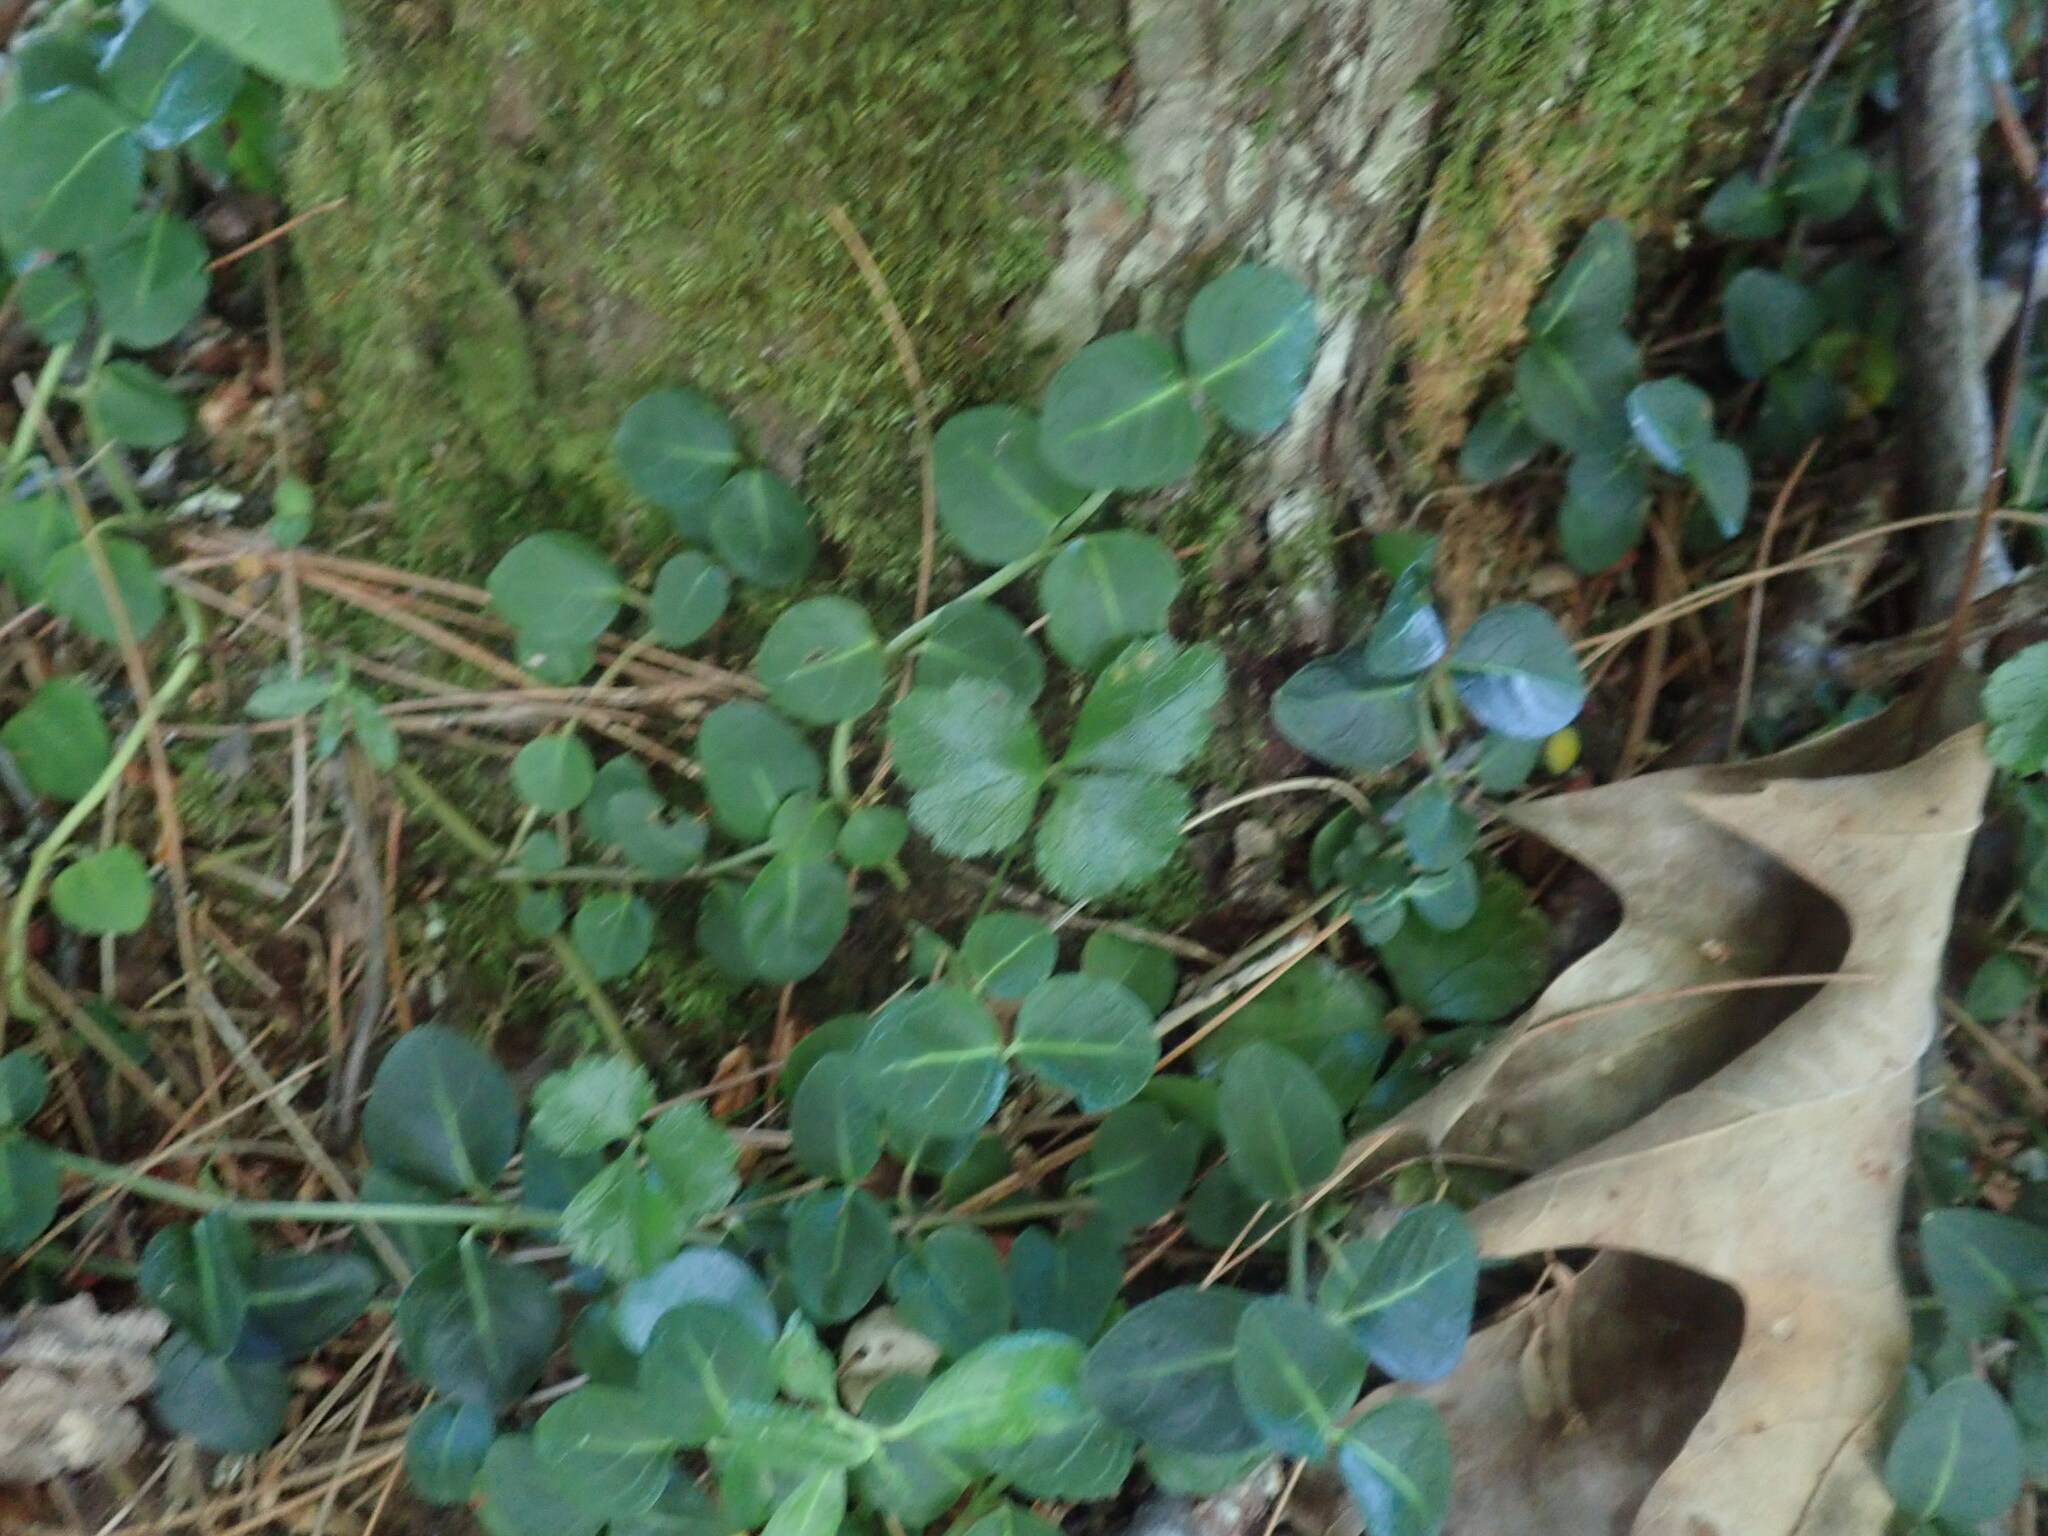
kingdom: Plantae
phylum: Tracheophyta
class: Magnoliopsida
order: Gentianales
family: Rubiaceae
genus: Mitchella
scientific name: Mitchella repens
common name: Partridge-berry
